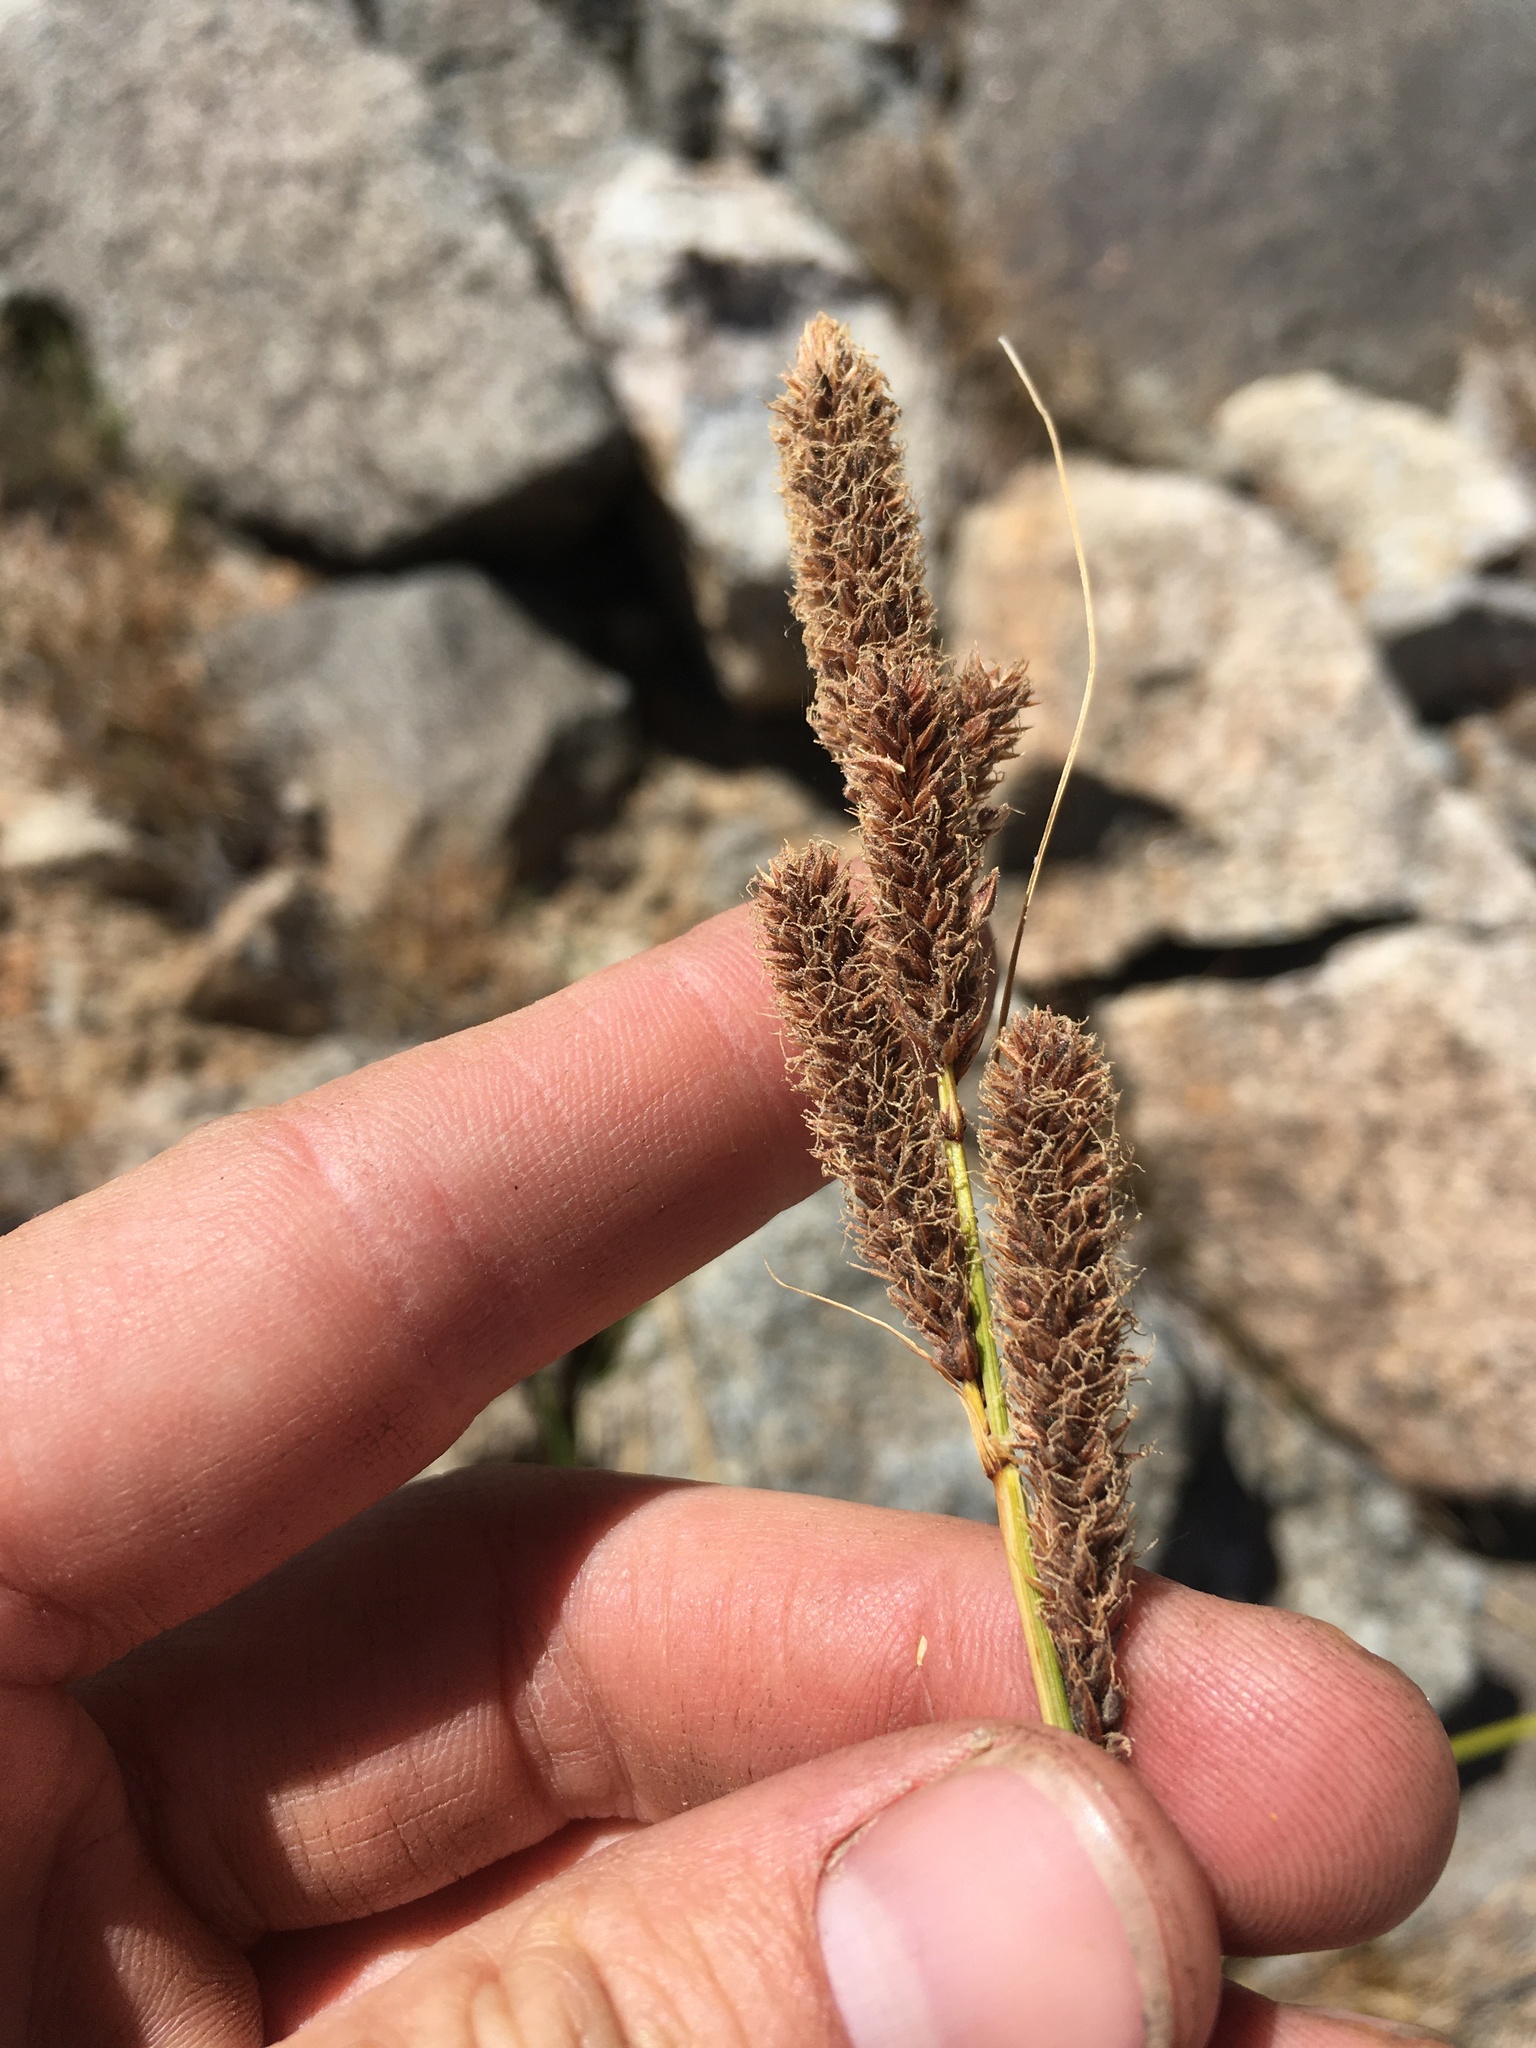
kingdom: Plantae
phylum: Tracheophyta
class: Liliopsida
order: Poales
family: Cyperaceae
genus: Carex
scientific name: Carex congdonii
